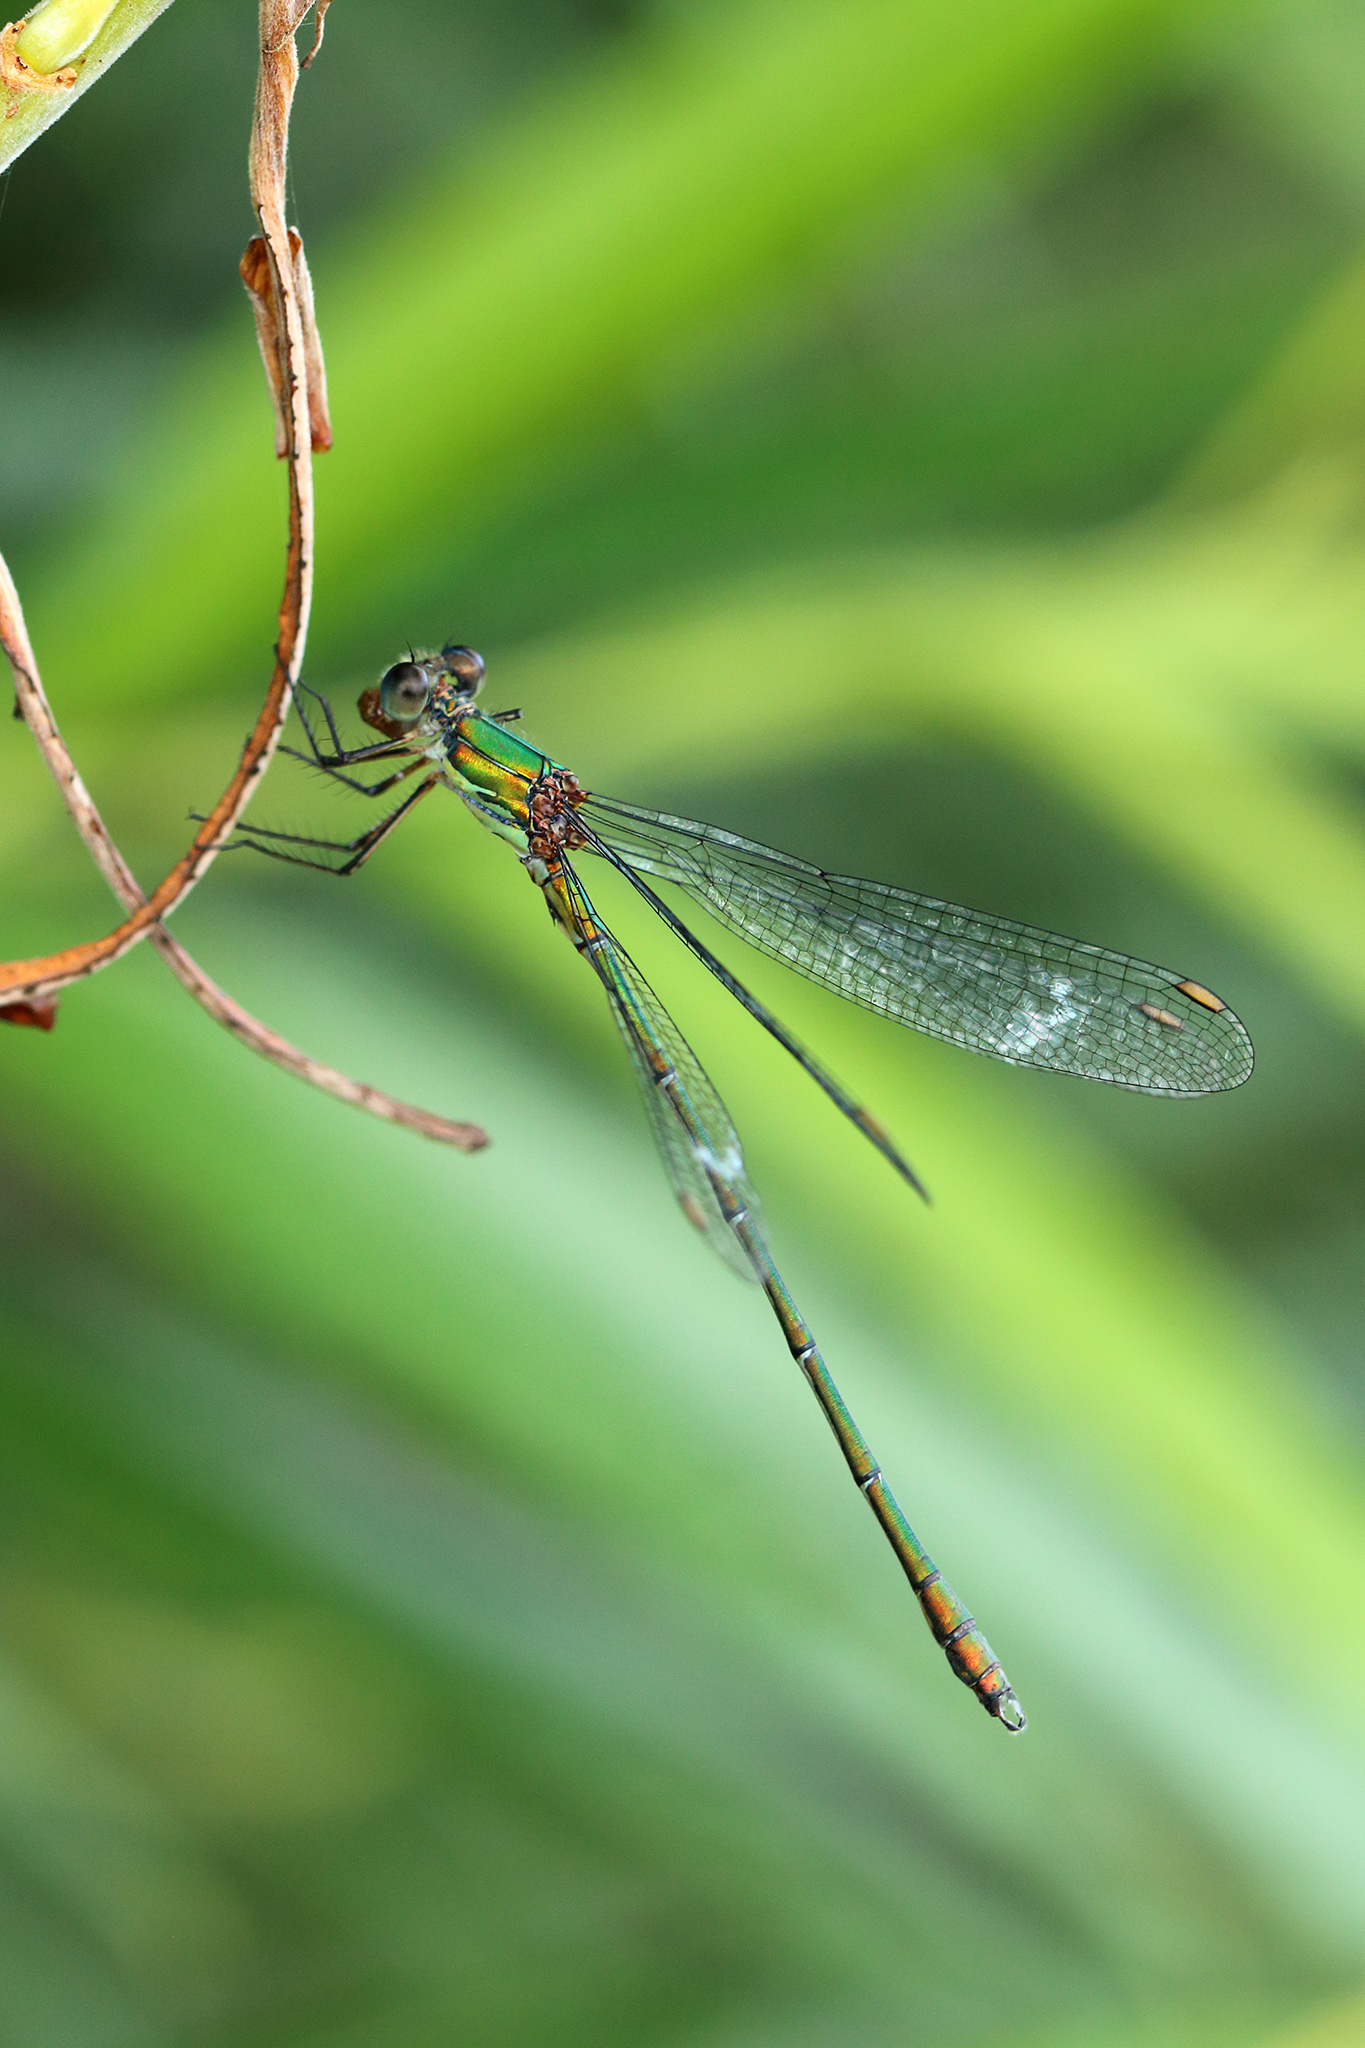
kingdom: Animalia
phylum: Arthropoda
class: Insecta
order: Odonata
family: Lestidae
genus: Chalcolestes
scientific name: Chalcolestes viridis
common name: Green emerald damselfly
